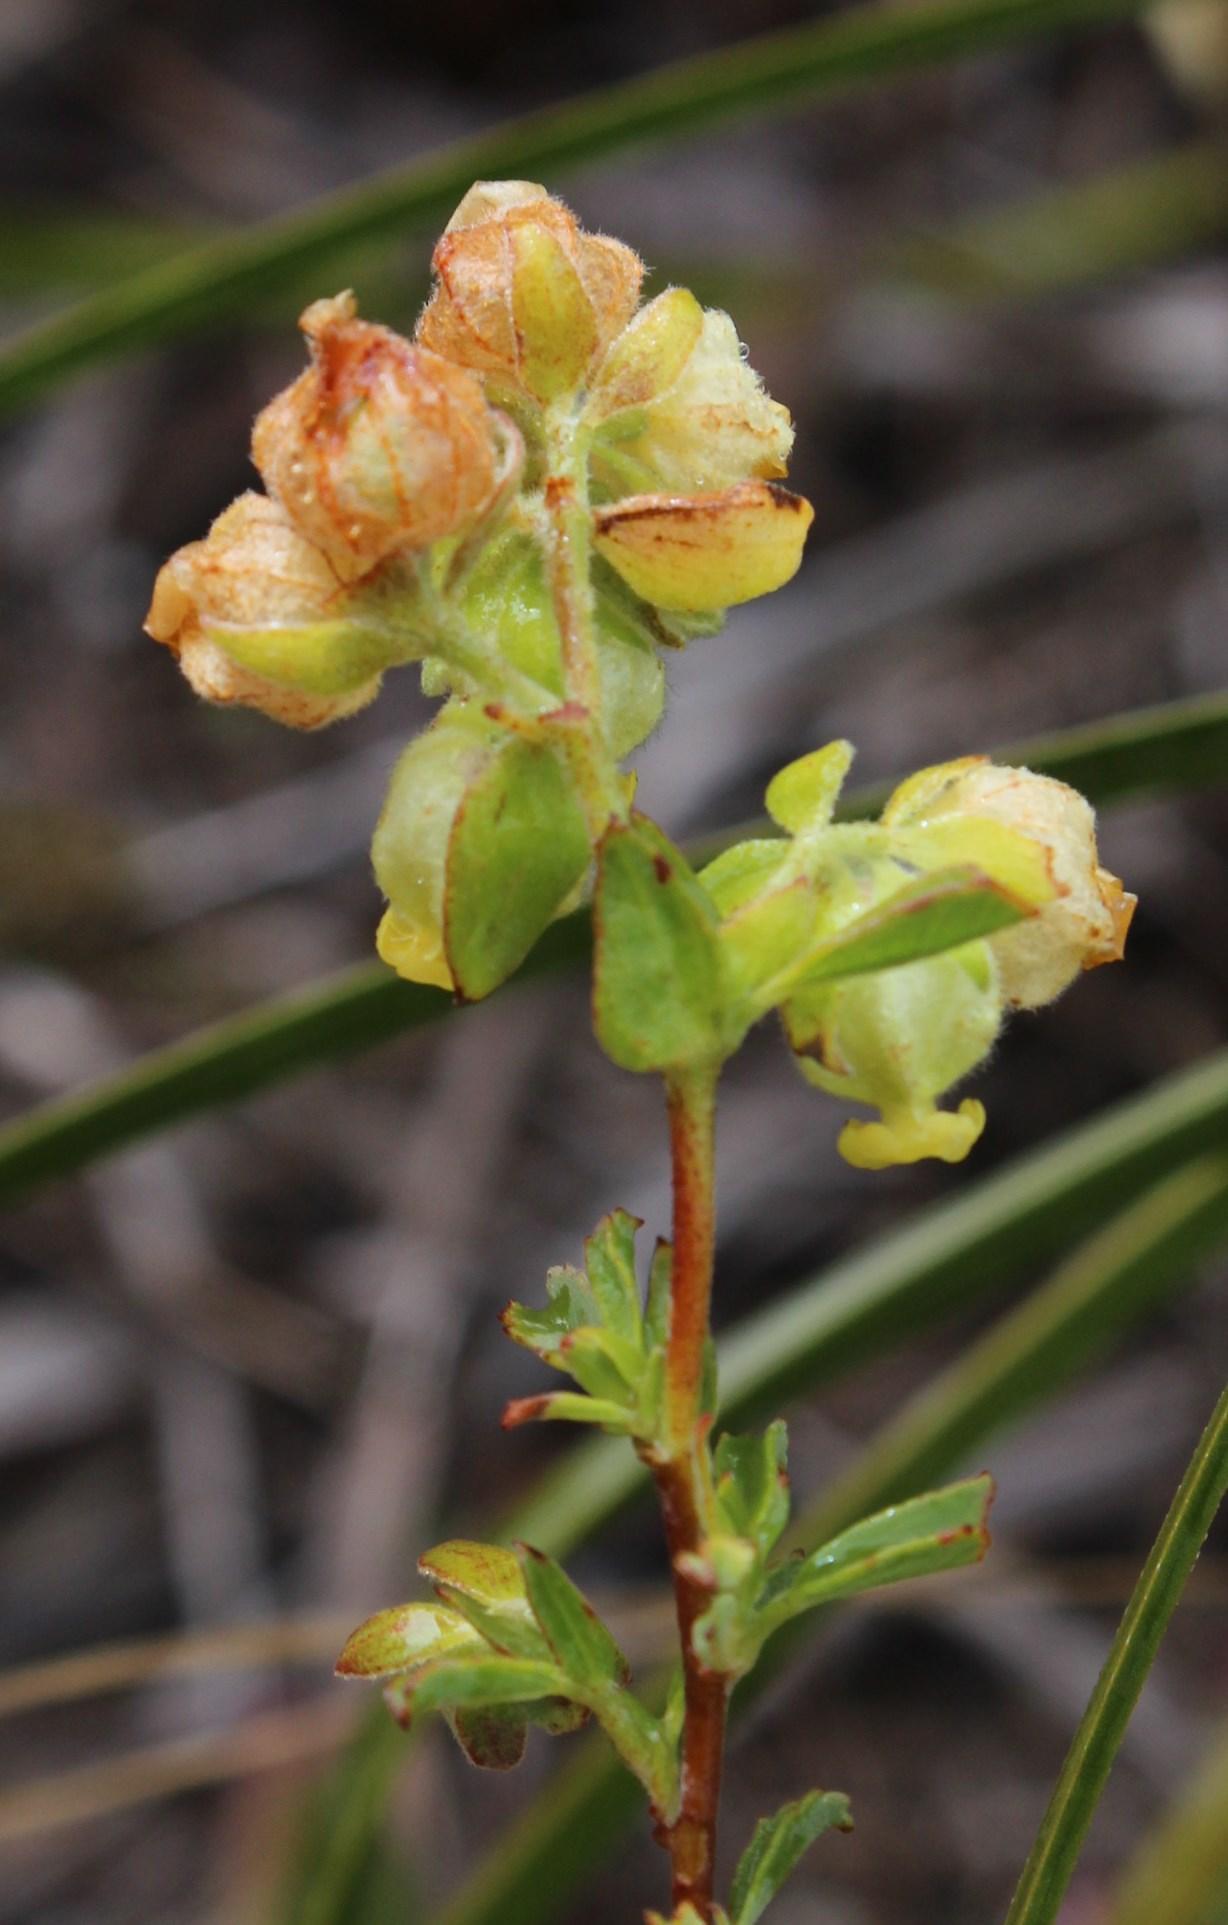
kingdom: Plantae
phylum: Tracheophyta
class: Magnoliopsida
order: Malvales
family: Malvaceae
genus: Hermannia
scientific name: Hermannia hyssopifolia
